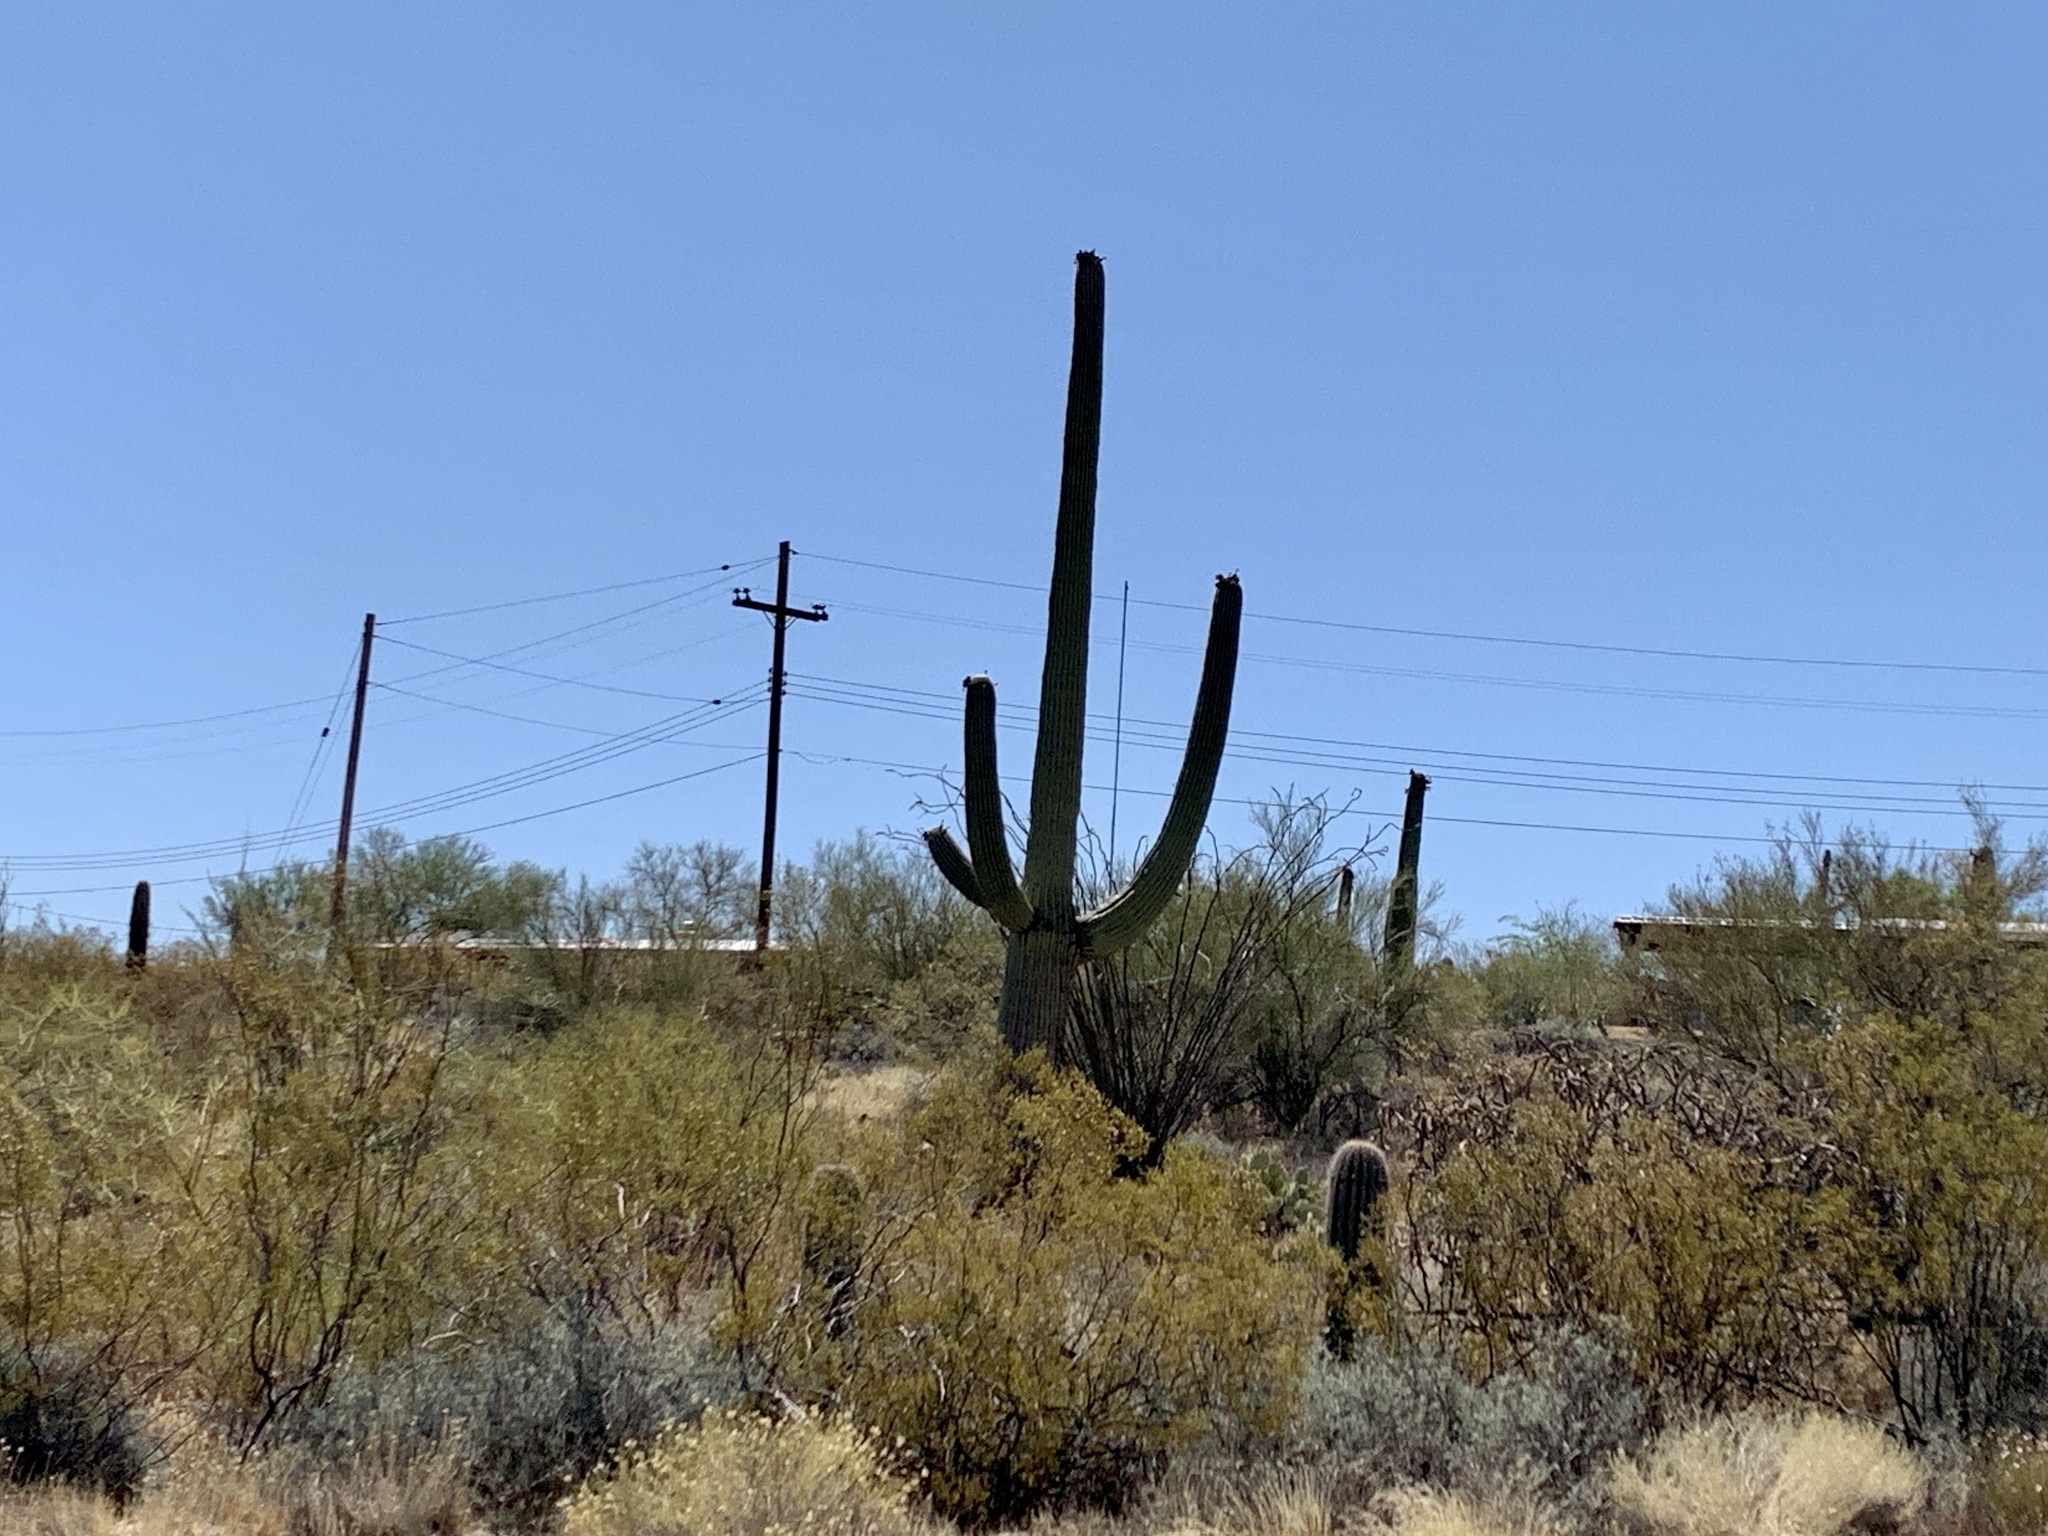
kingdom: Plantae
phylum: Tracheophyta
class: Magnoliopsida
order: Caryophyllales
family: Cactaceae
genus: Carnegiea
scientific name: Carnegiea gigantea
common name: Saguaro
